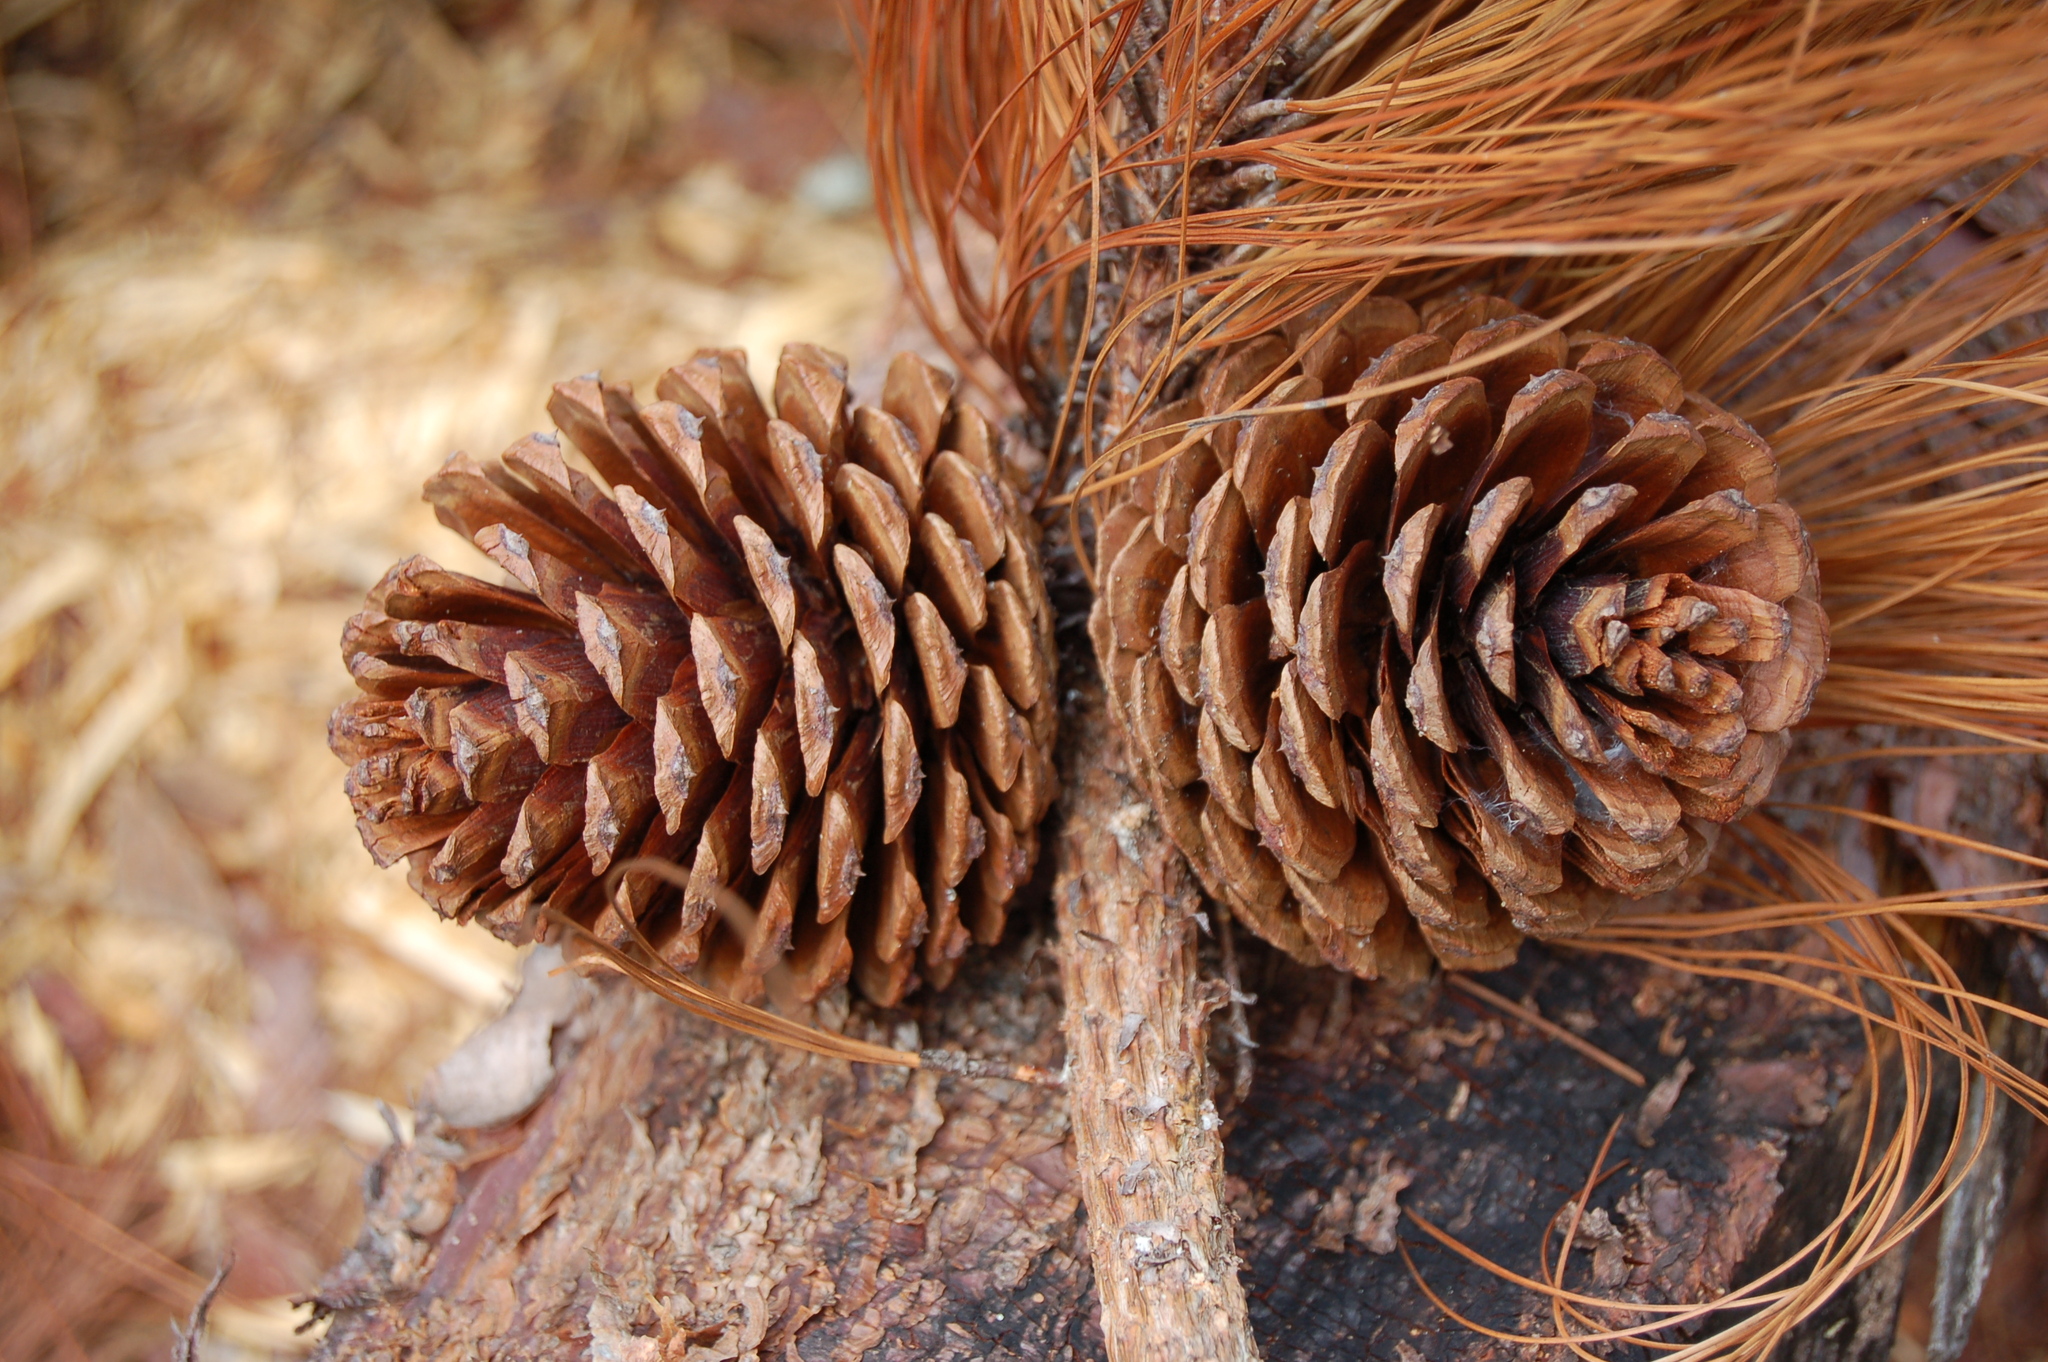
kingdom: Plantae
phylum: Tracheophyta
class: Pinopsida
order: Pinales
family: Pinaceae
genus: Pinus
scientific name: Pinus pseudostrobus
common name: False weymouth pine
